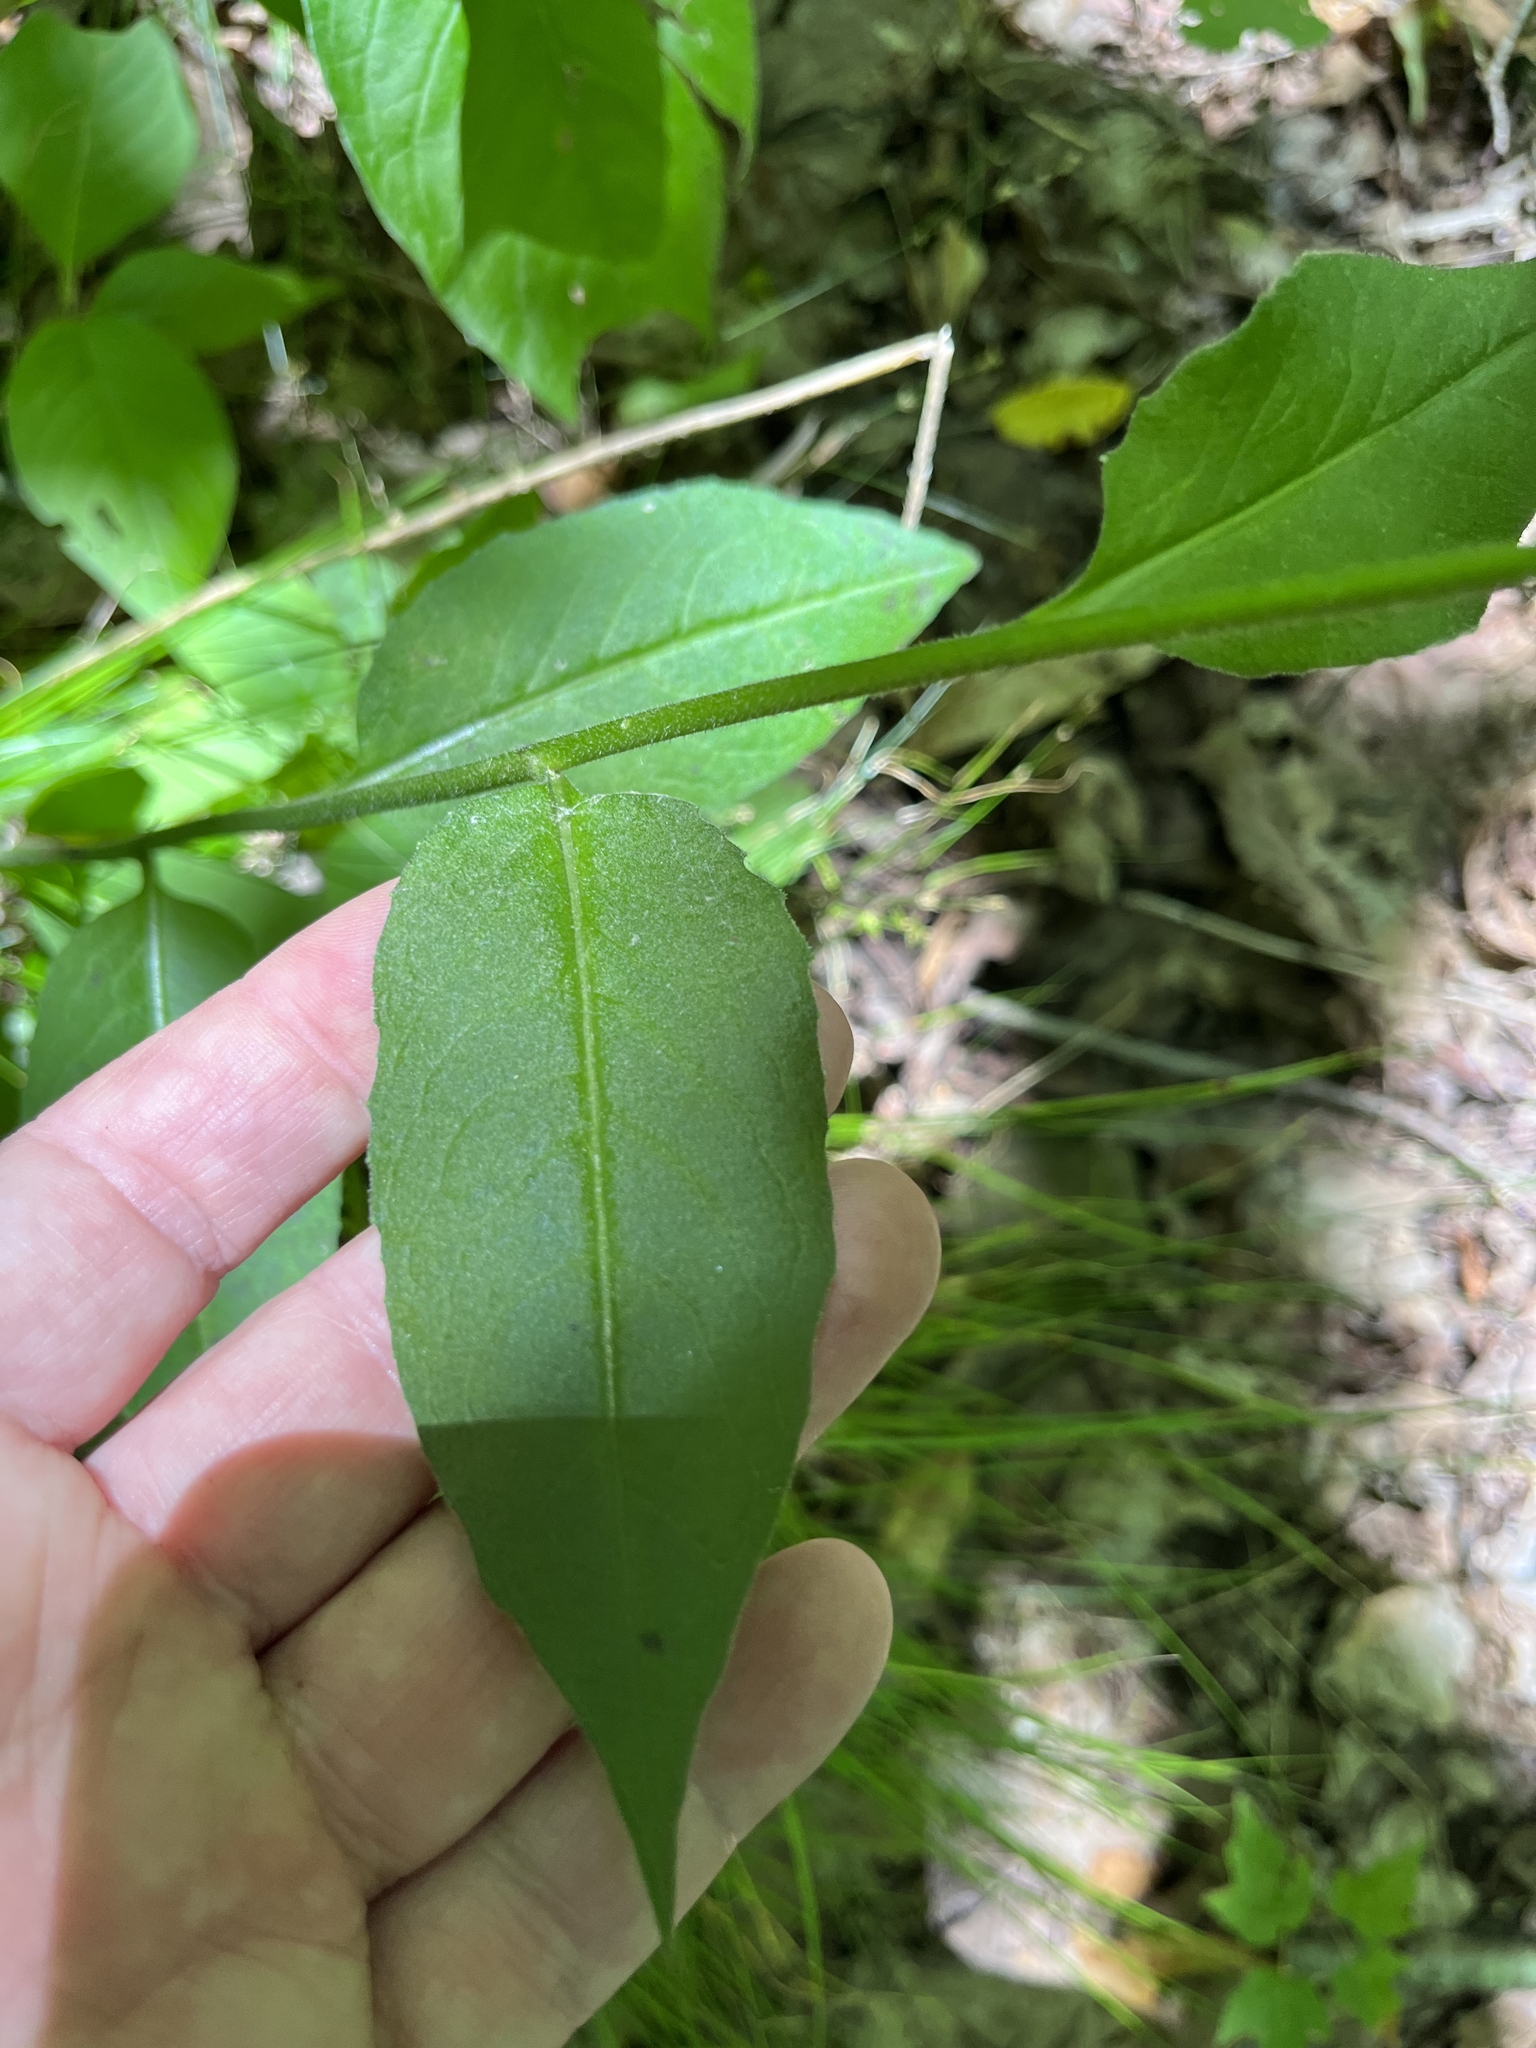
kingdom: Plantae
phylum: Tracheophyta
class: Magnoliopsida
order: Brassicales
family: Brassicaceae
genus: Hesperis
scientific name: Hesperis matronalis
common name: Dame's-violet
